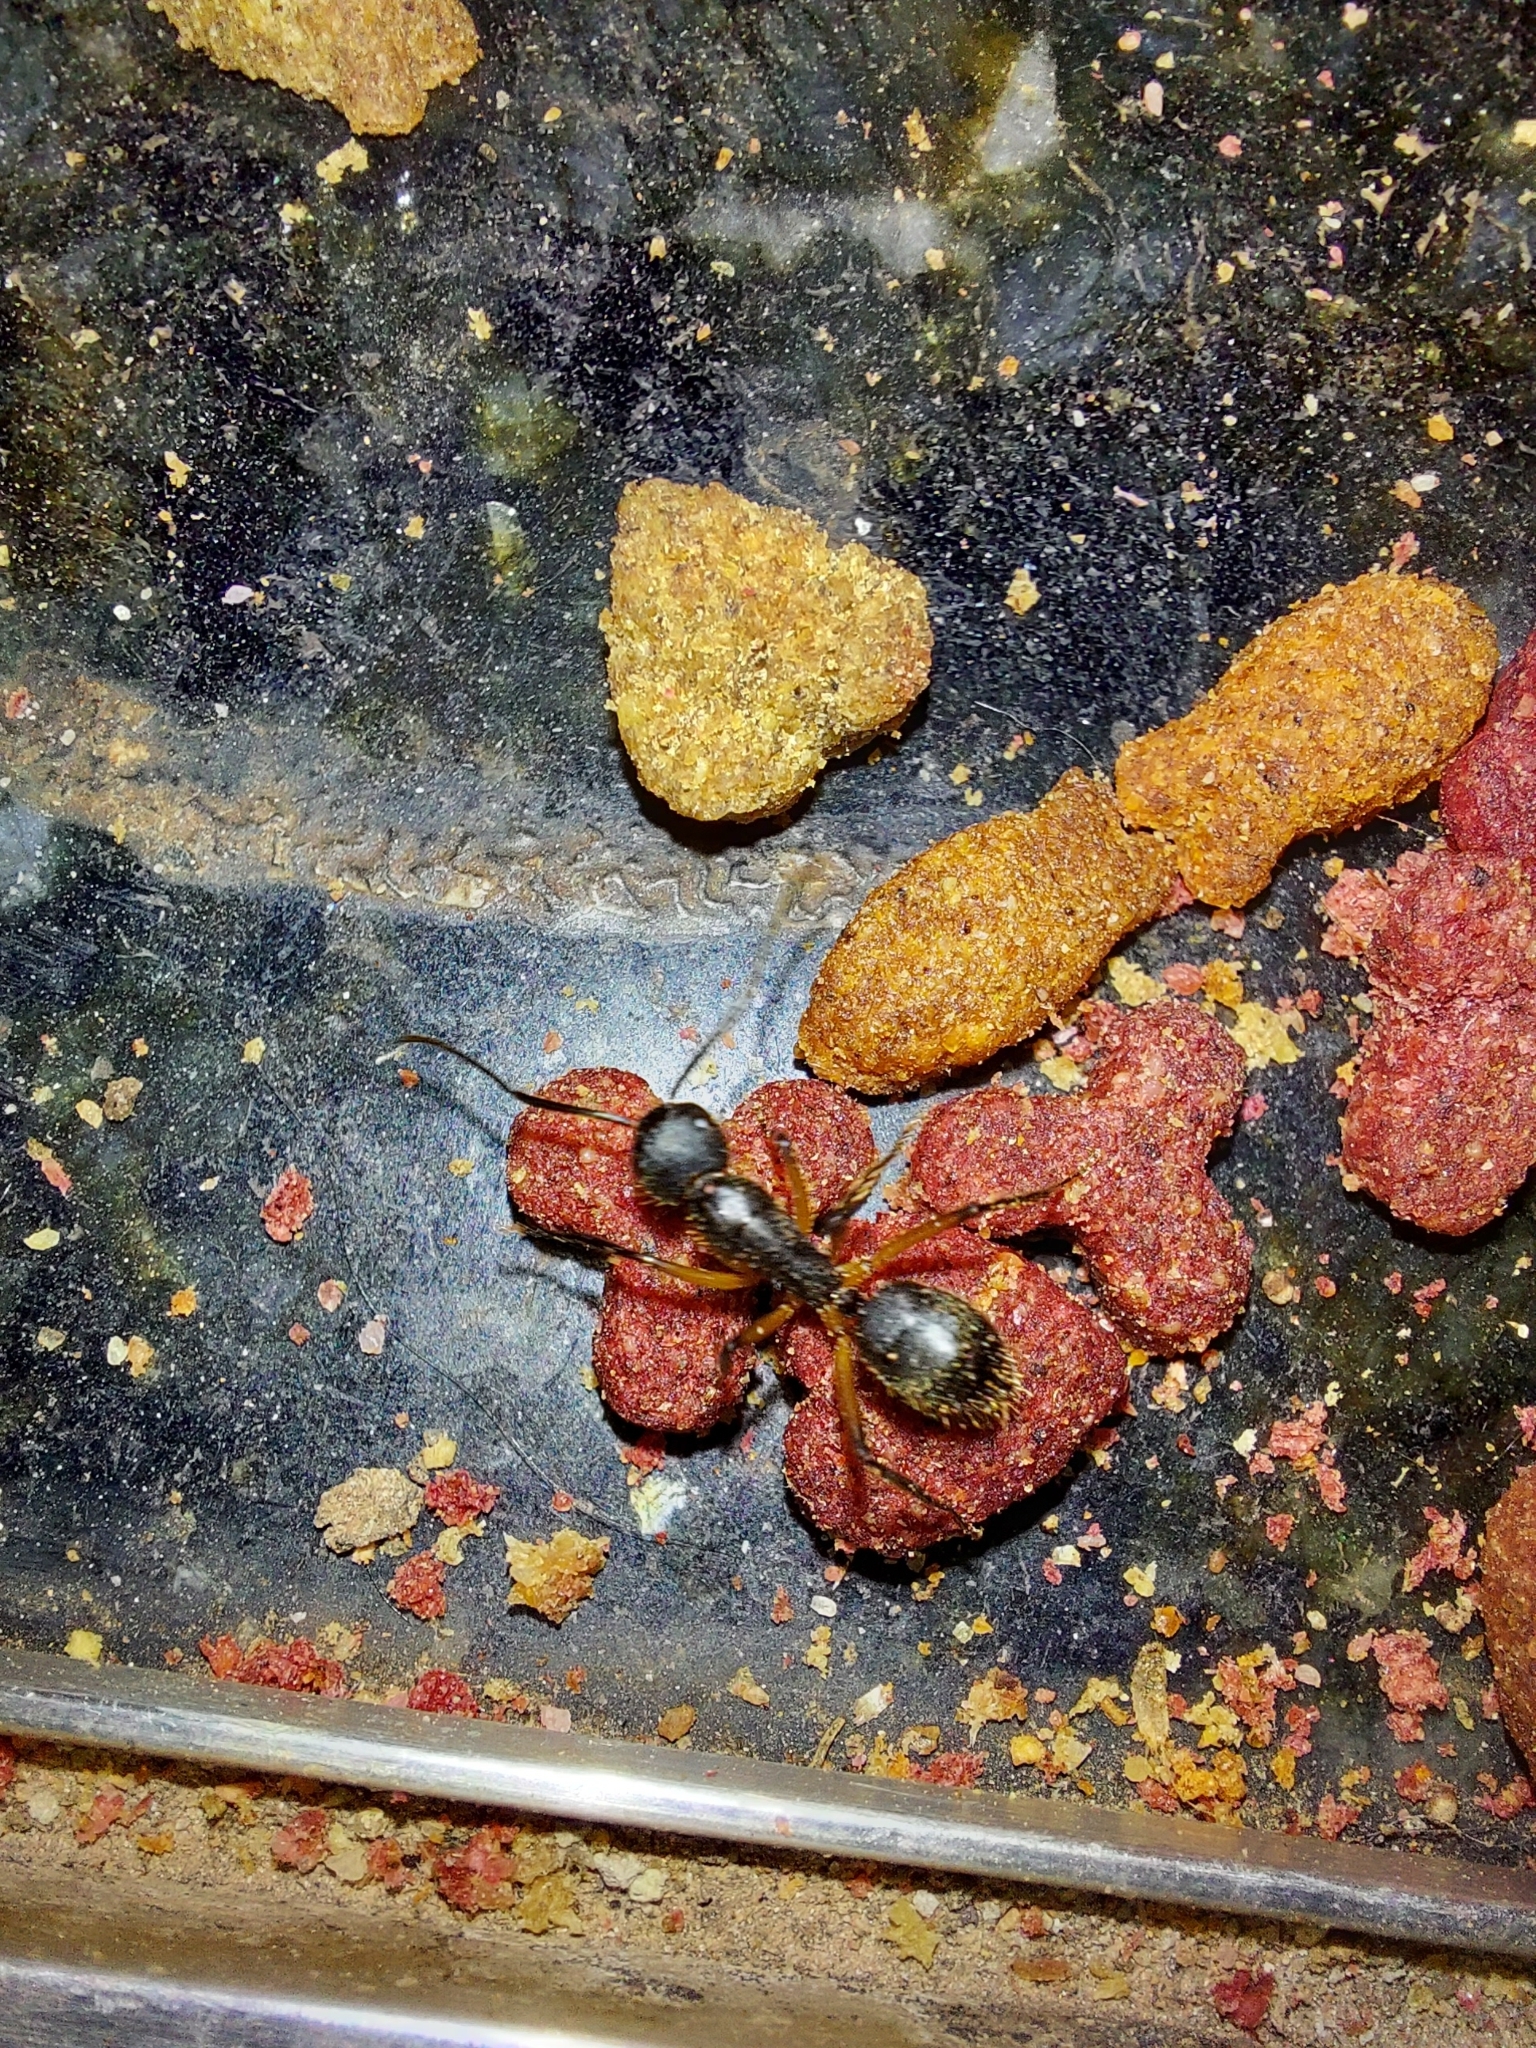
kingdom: Animalia
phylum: Arthropoda
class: Insecta
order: Hymenoptera
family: Formicidae
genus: Camponotus
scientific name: Camponotus renggeri
